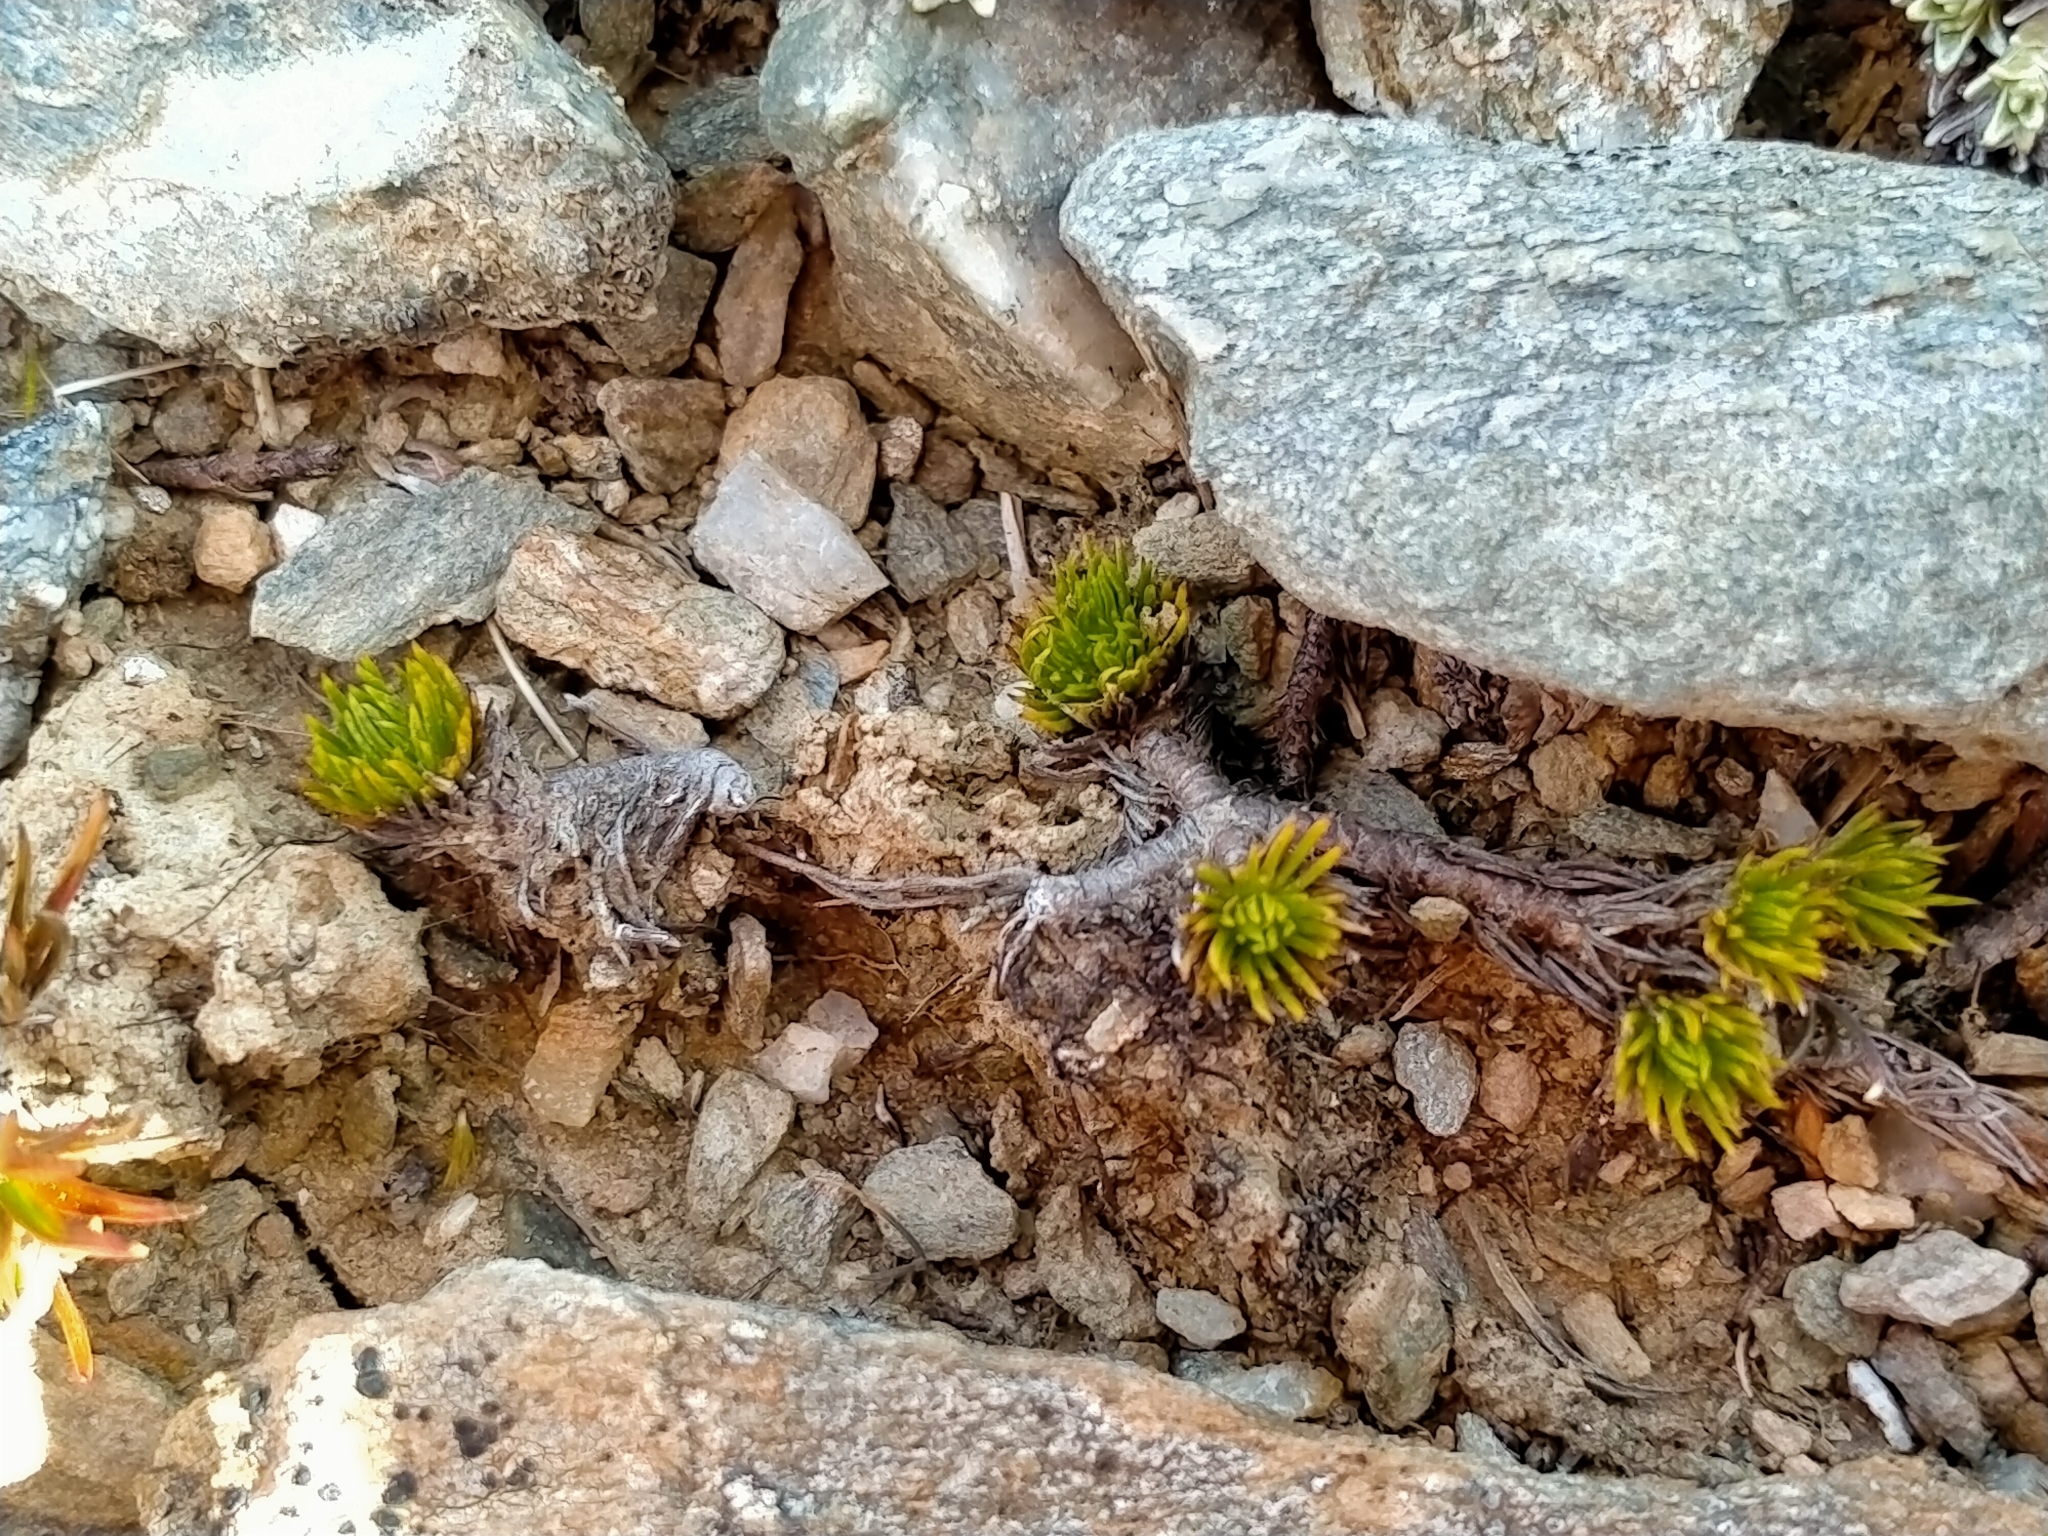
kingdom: Plantae
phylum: Tracheophyta
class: Magnoliopsida
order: Asterales
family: Asteraceae
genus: Leptinella
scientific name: Leptinella goyenii
